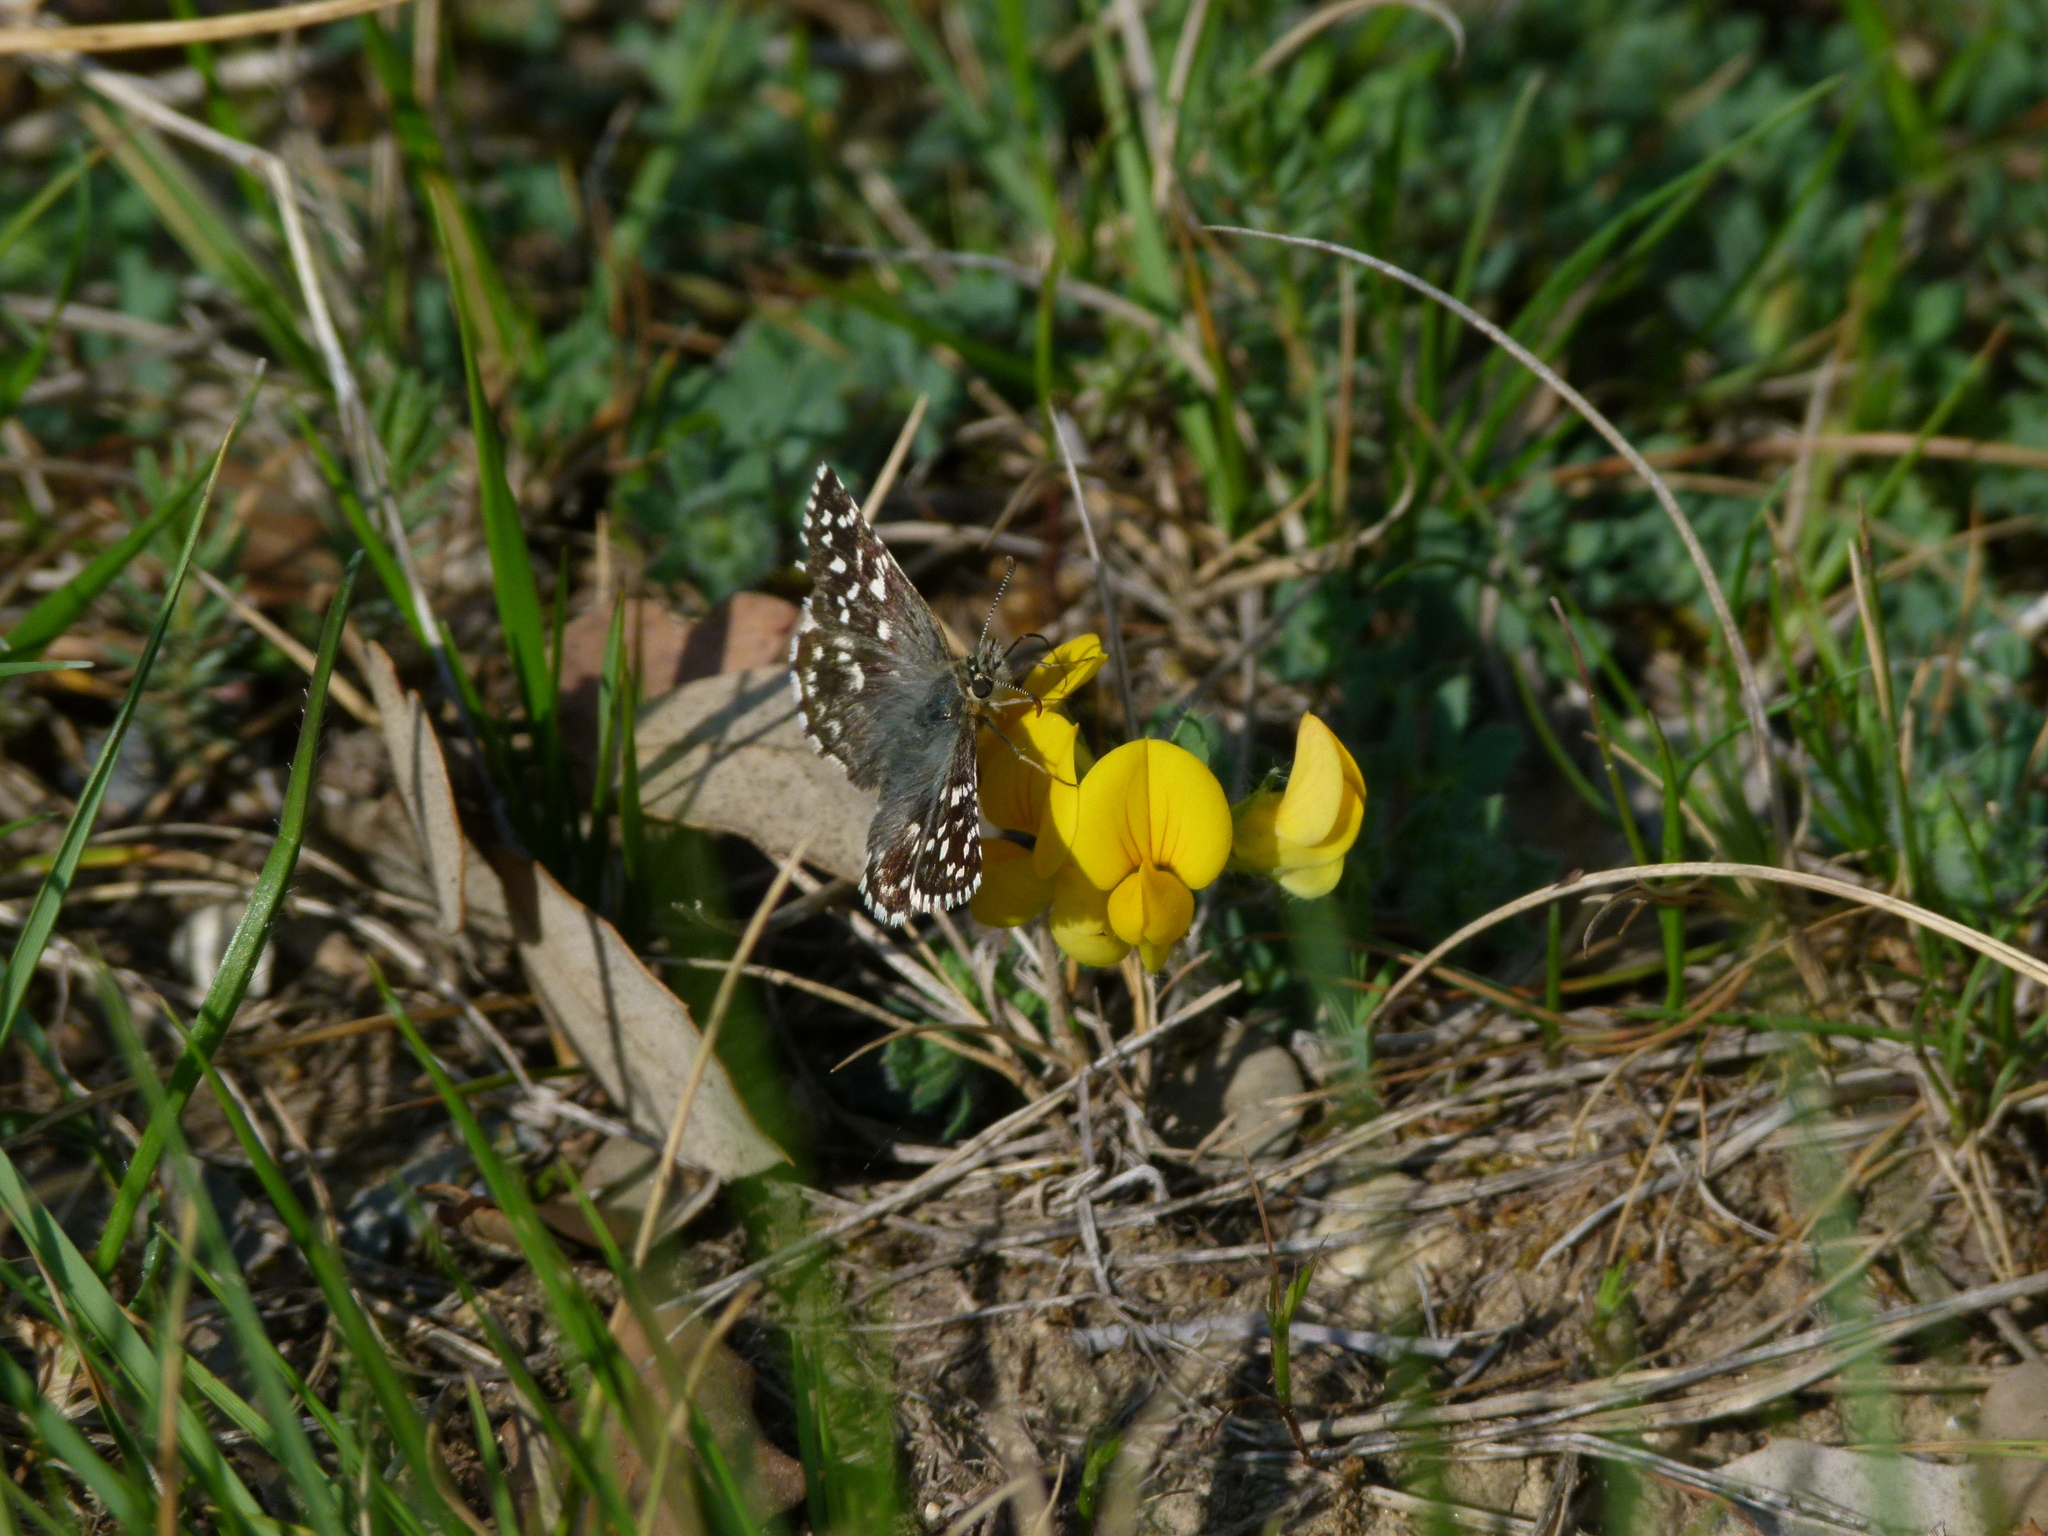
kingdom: Animalia
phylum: Arthropoda
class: Insecta
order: Lepidoptera
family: Hesperiidae
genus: Pyrgus
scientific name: Pyrgus malvoides
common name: Southern grizzled skipper
